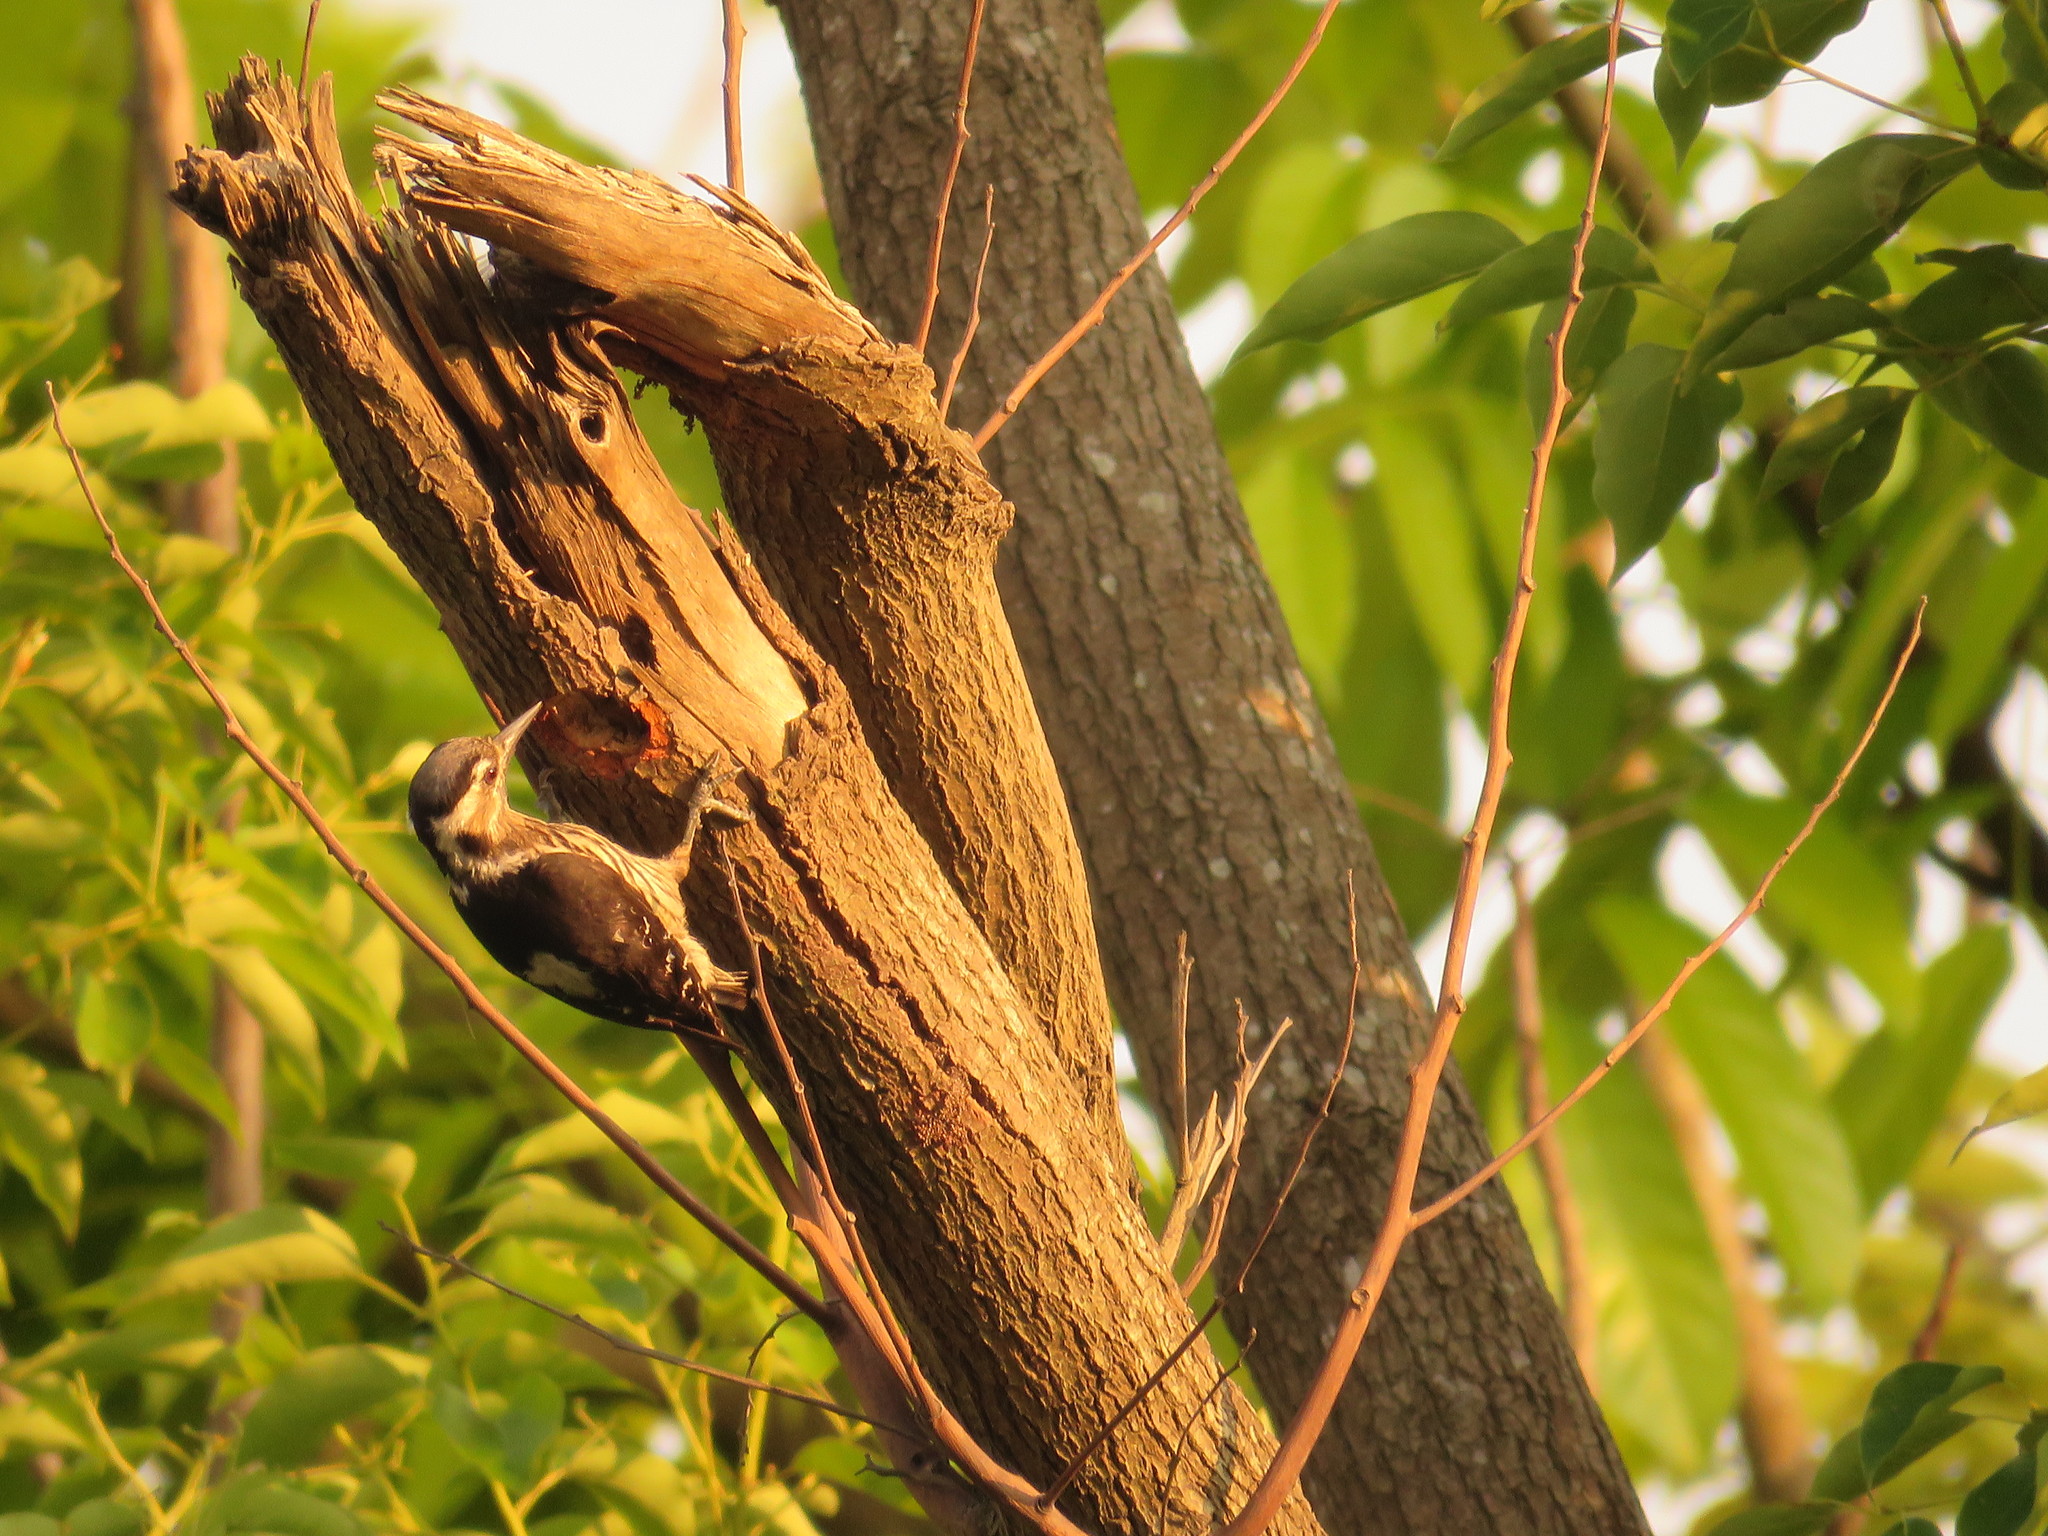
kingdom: Animalia
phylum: Chordata
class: Aves
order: Piciformes
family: Picidae
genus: Yungipicus
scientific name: Yungipicus canicapillus
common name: Grey-capped pygmy woodpecker
